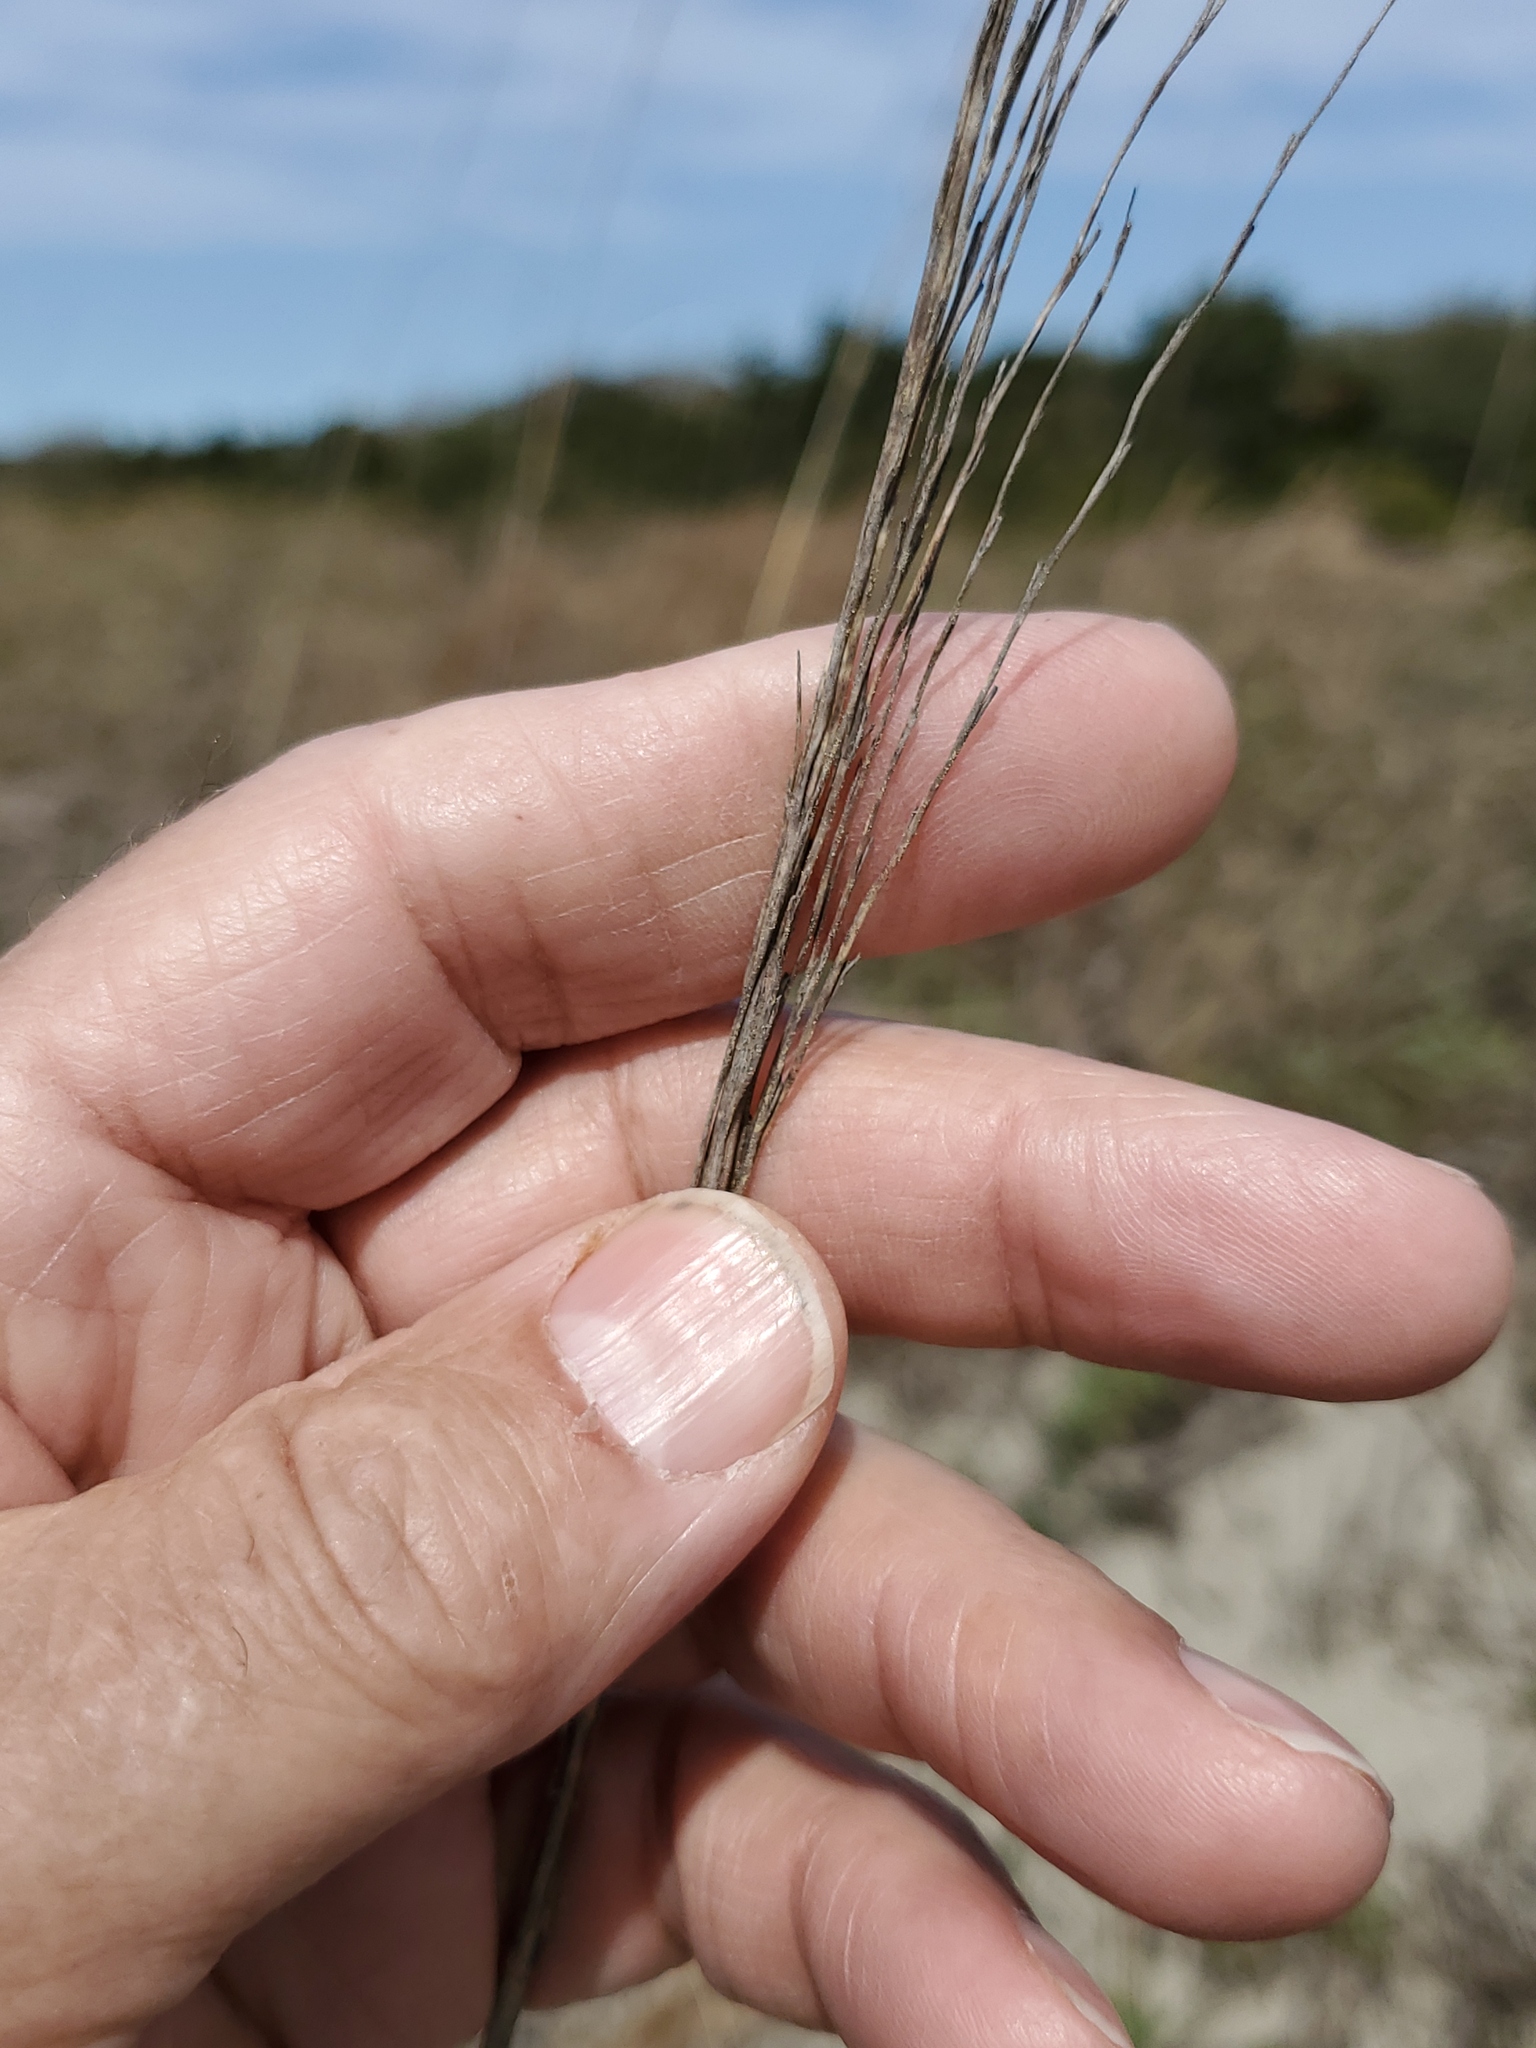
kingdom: Plantae
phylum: Tracheophyta
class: Liliopsida
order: Poales
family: Poaceae
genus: Uniola
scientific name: Uniola paniculata
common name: Seaside-oats
